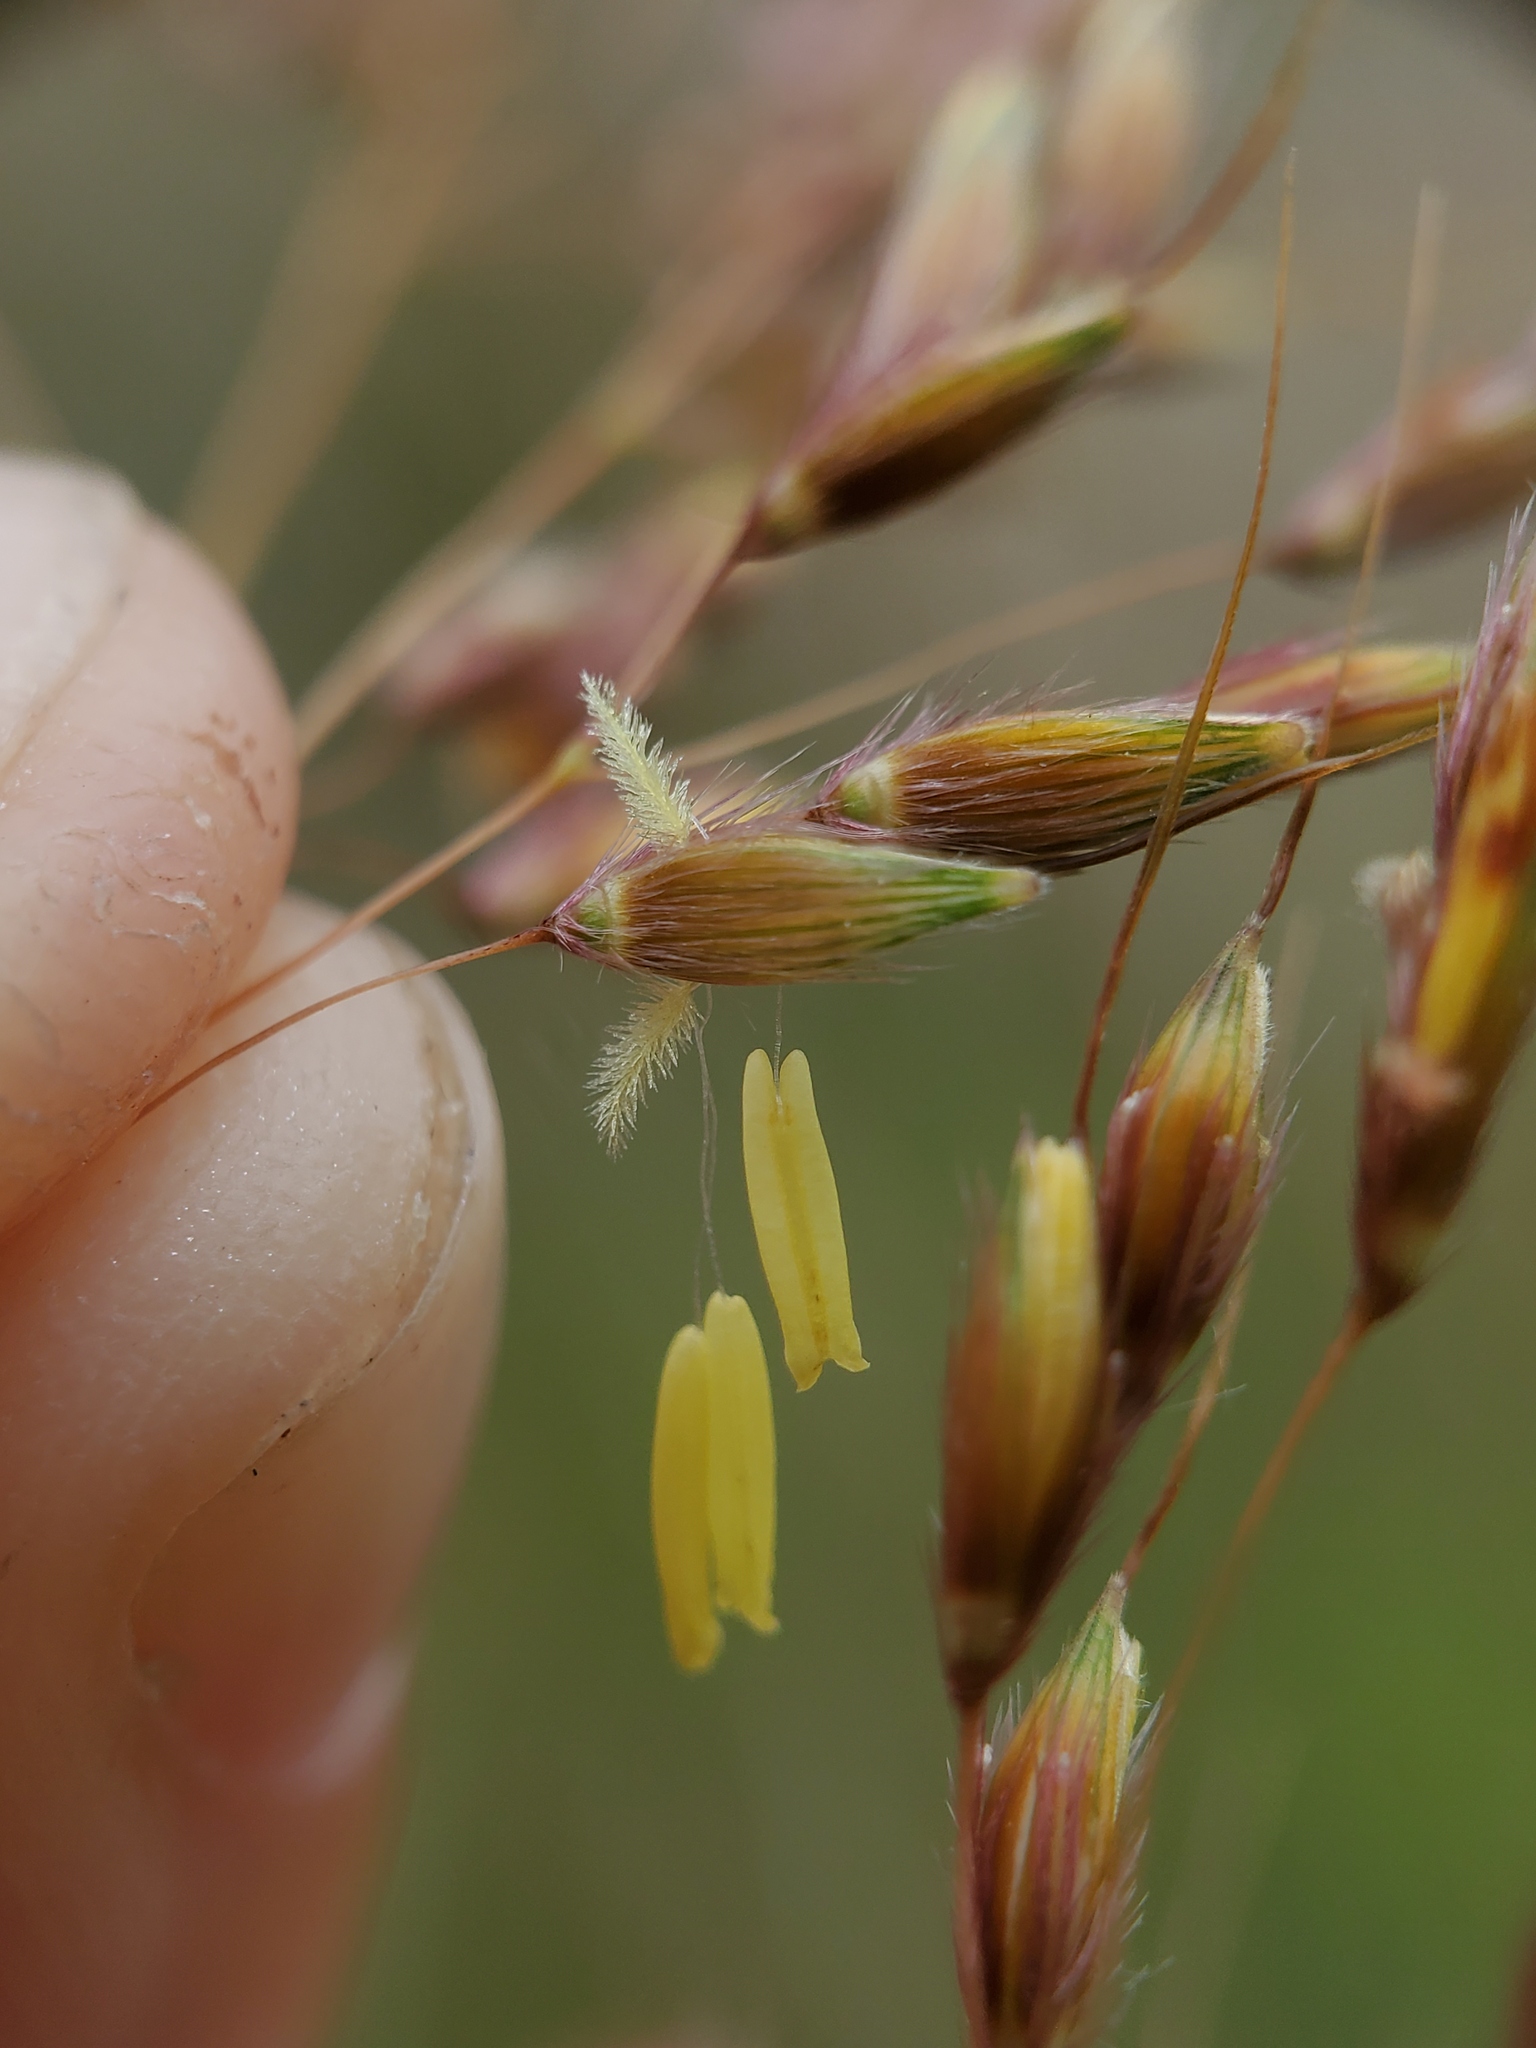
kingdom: Plantae
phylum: Tracheophyta
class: Liliopsida
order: Poales
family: Poaceae
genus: Sorghastrum
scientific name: Sorghastrum nutans
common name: Indian grass
